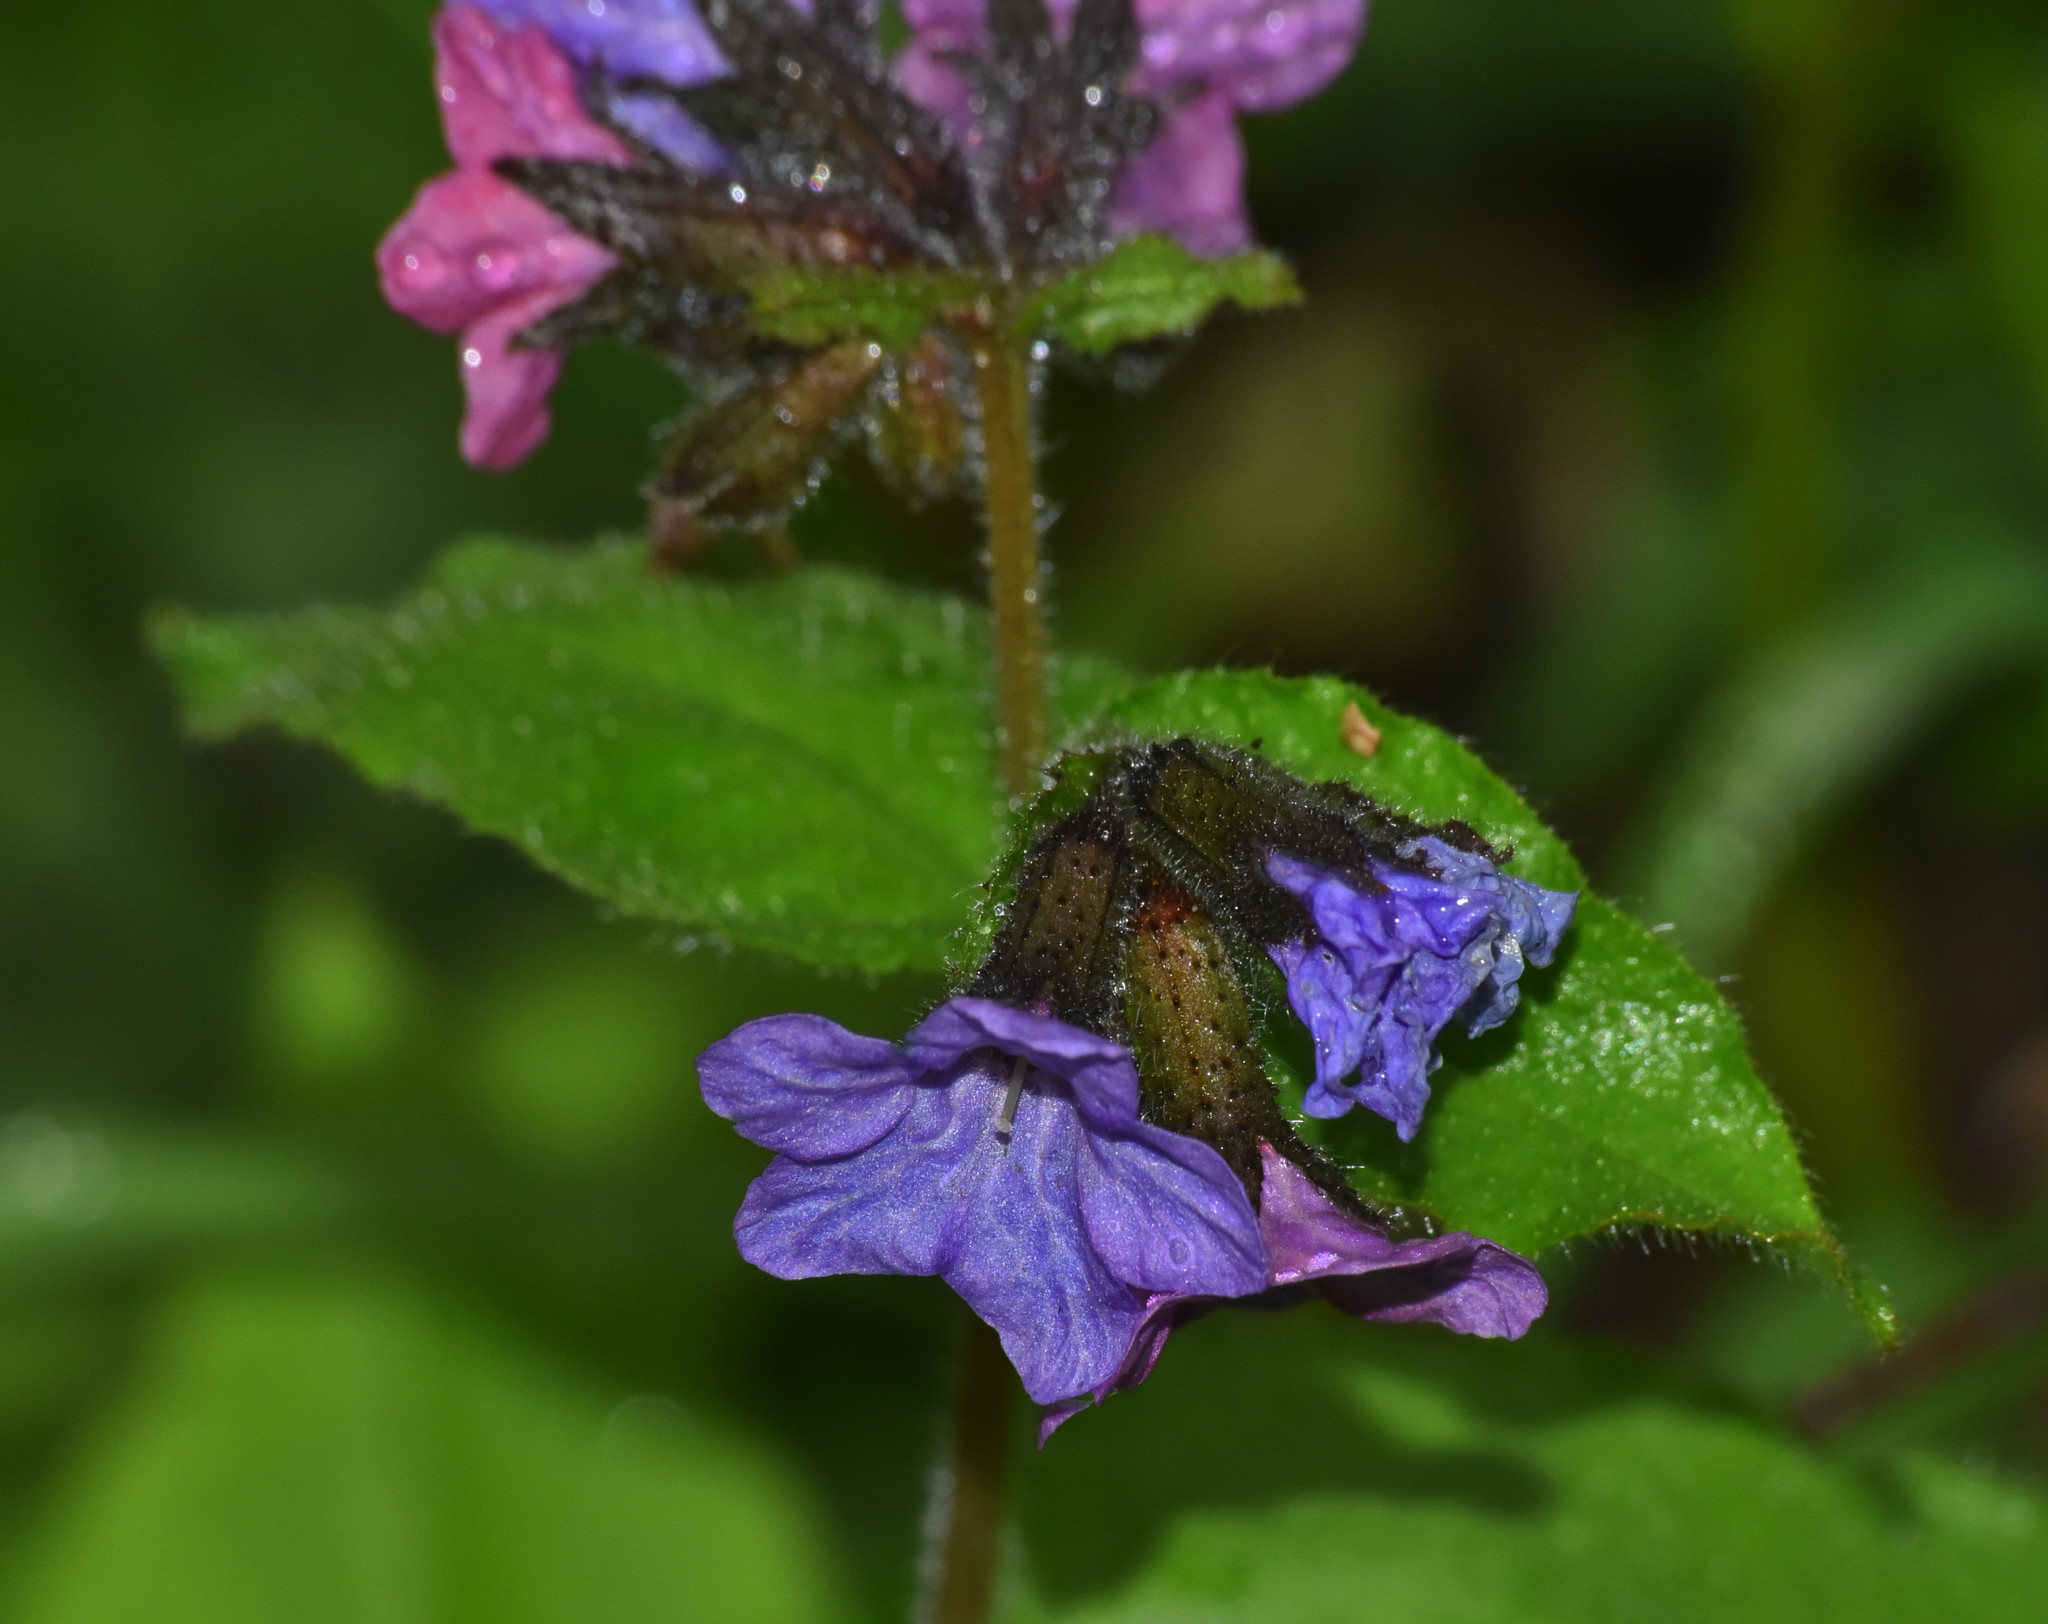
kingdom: Plantae
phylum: Tracheophyta
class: Magnoliopsida
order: Boraginales
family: Boraginaceae
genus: Pulmonaria
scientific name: Pulmonaria obscura
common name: Suffolk lungwort
